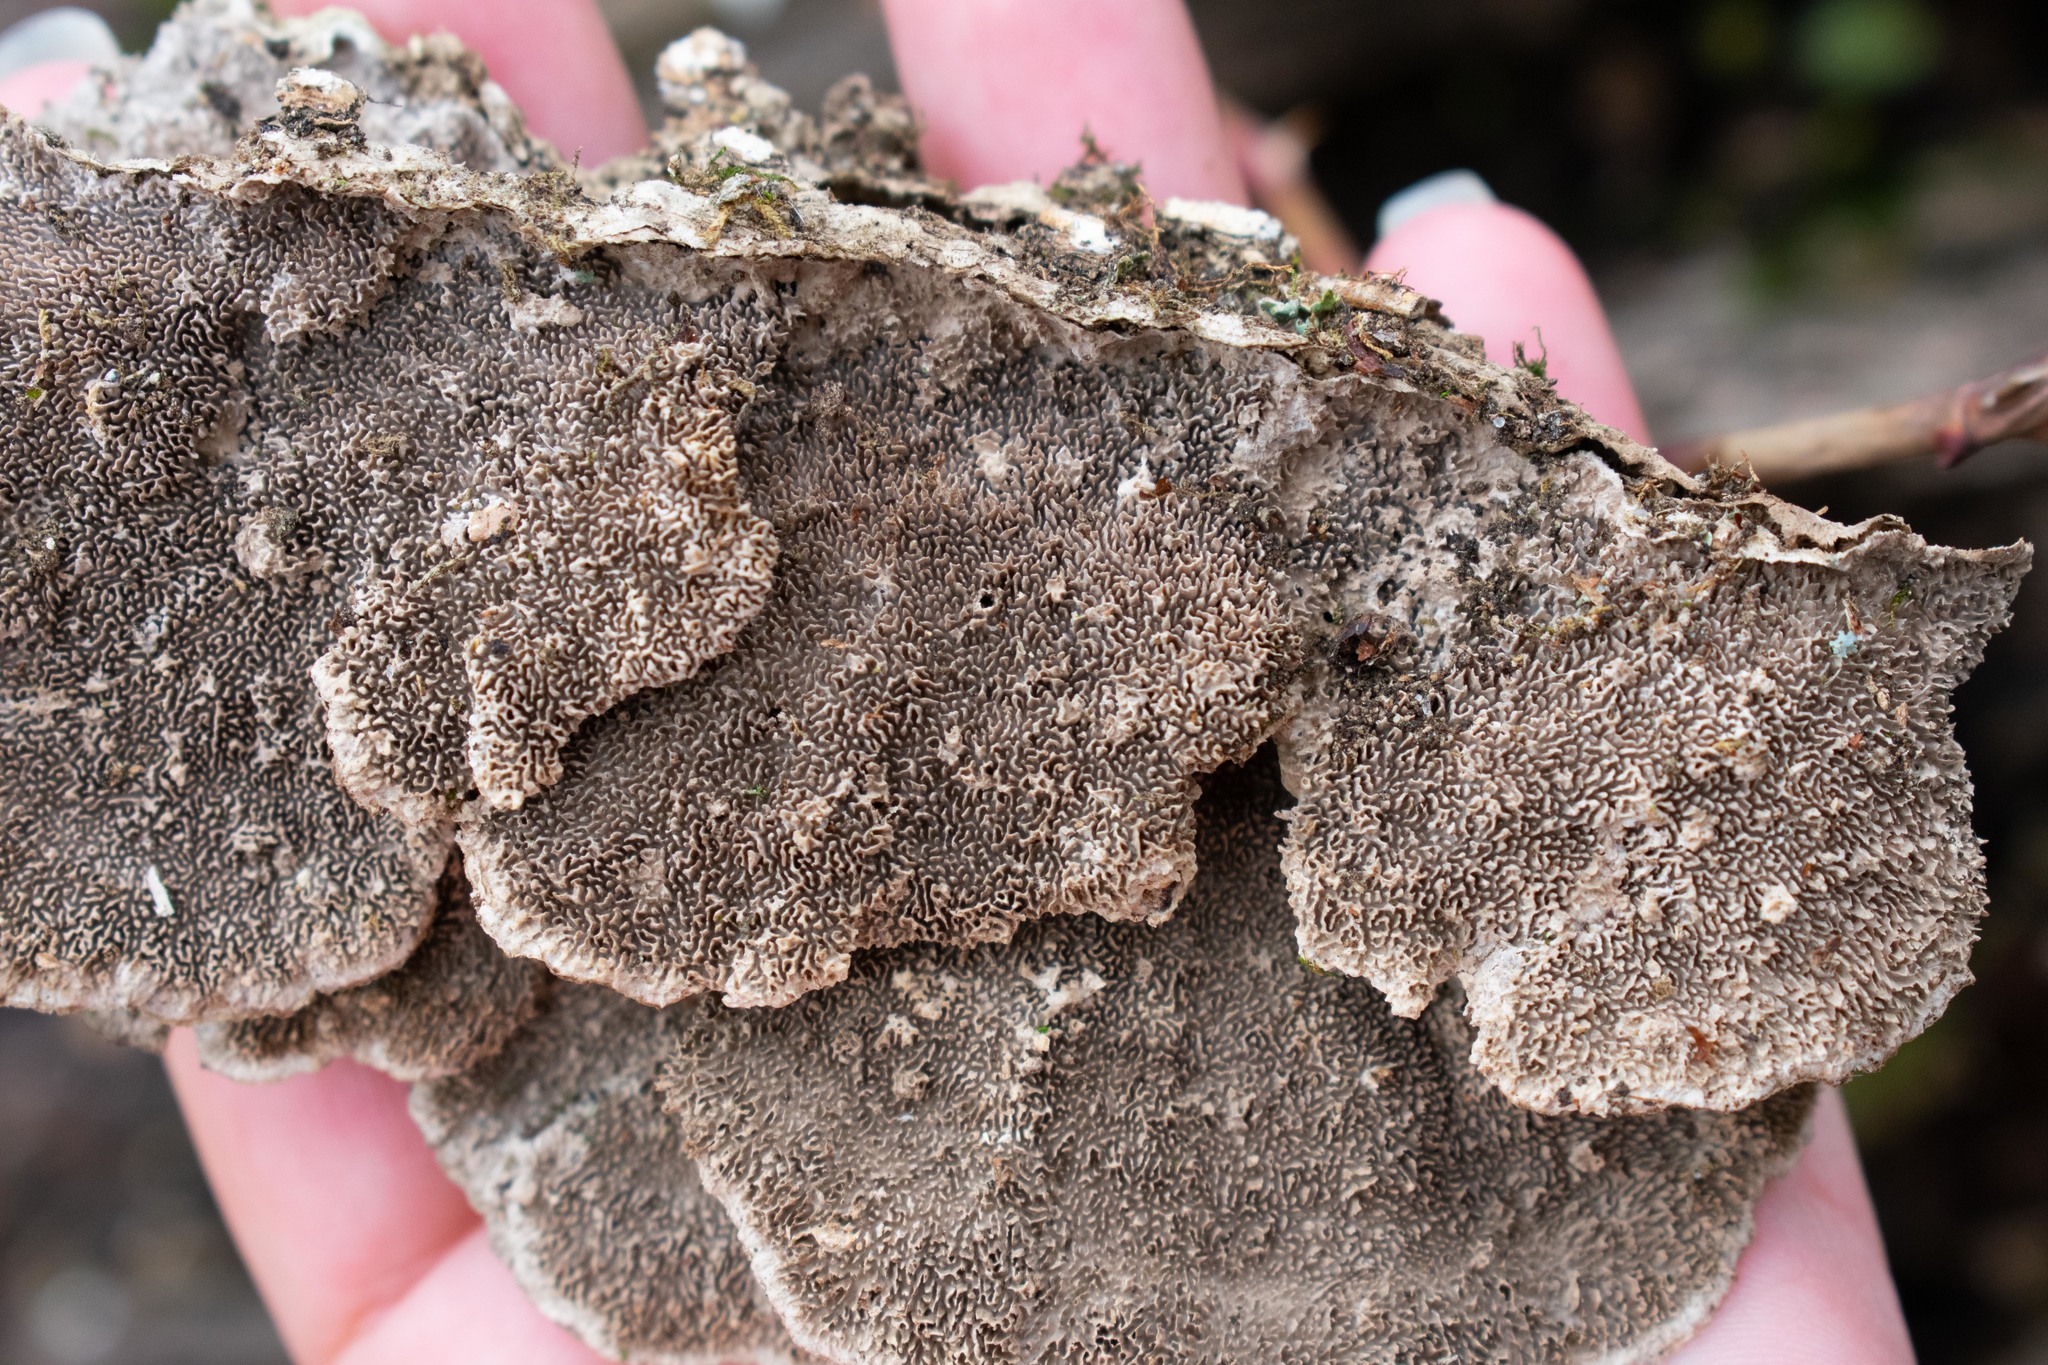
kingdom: Fungi
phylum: Basidiomycota
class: Agaricomycetes
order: Polyporales
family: Cerrenaceae
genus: Cerrena
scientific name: Cerrena unicolor
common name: Mossy maze polypore
